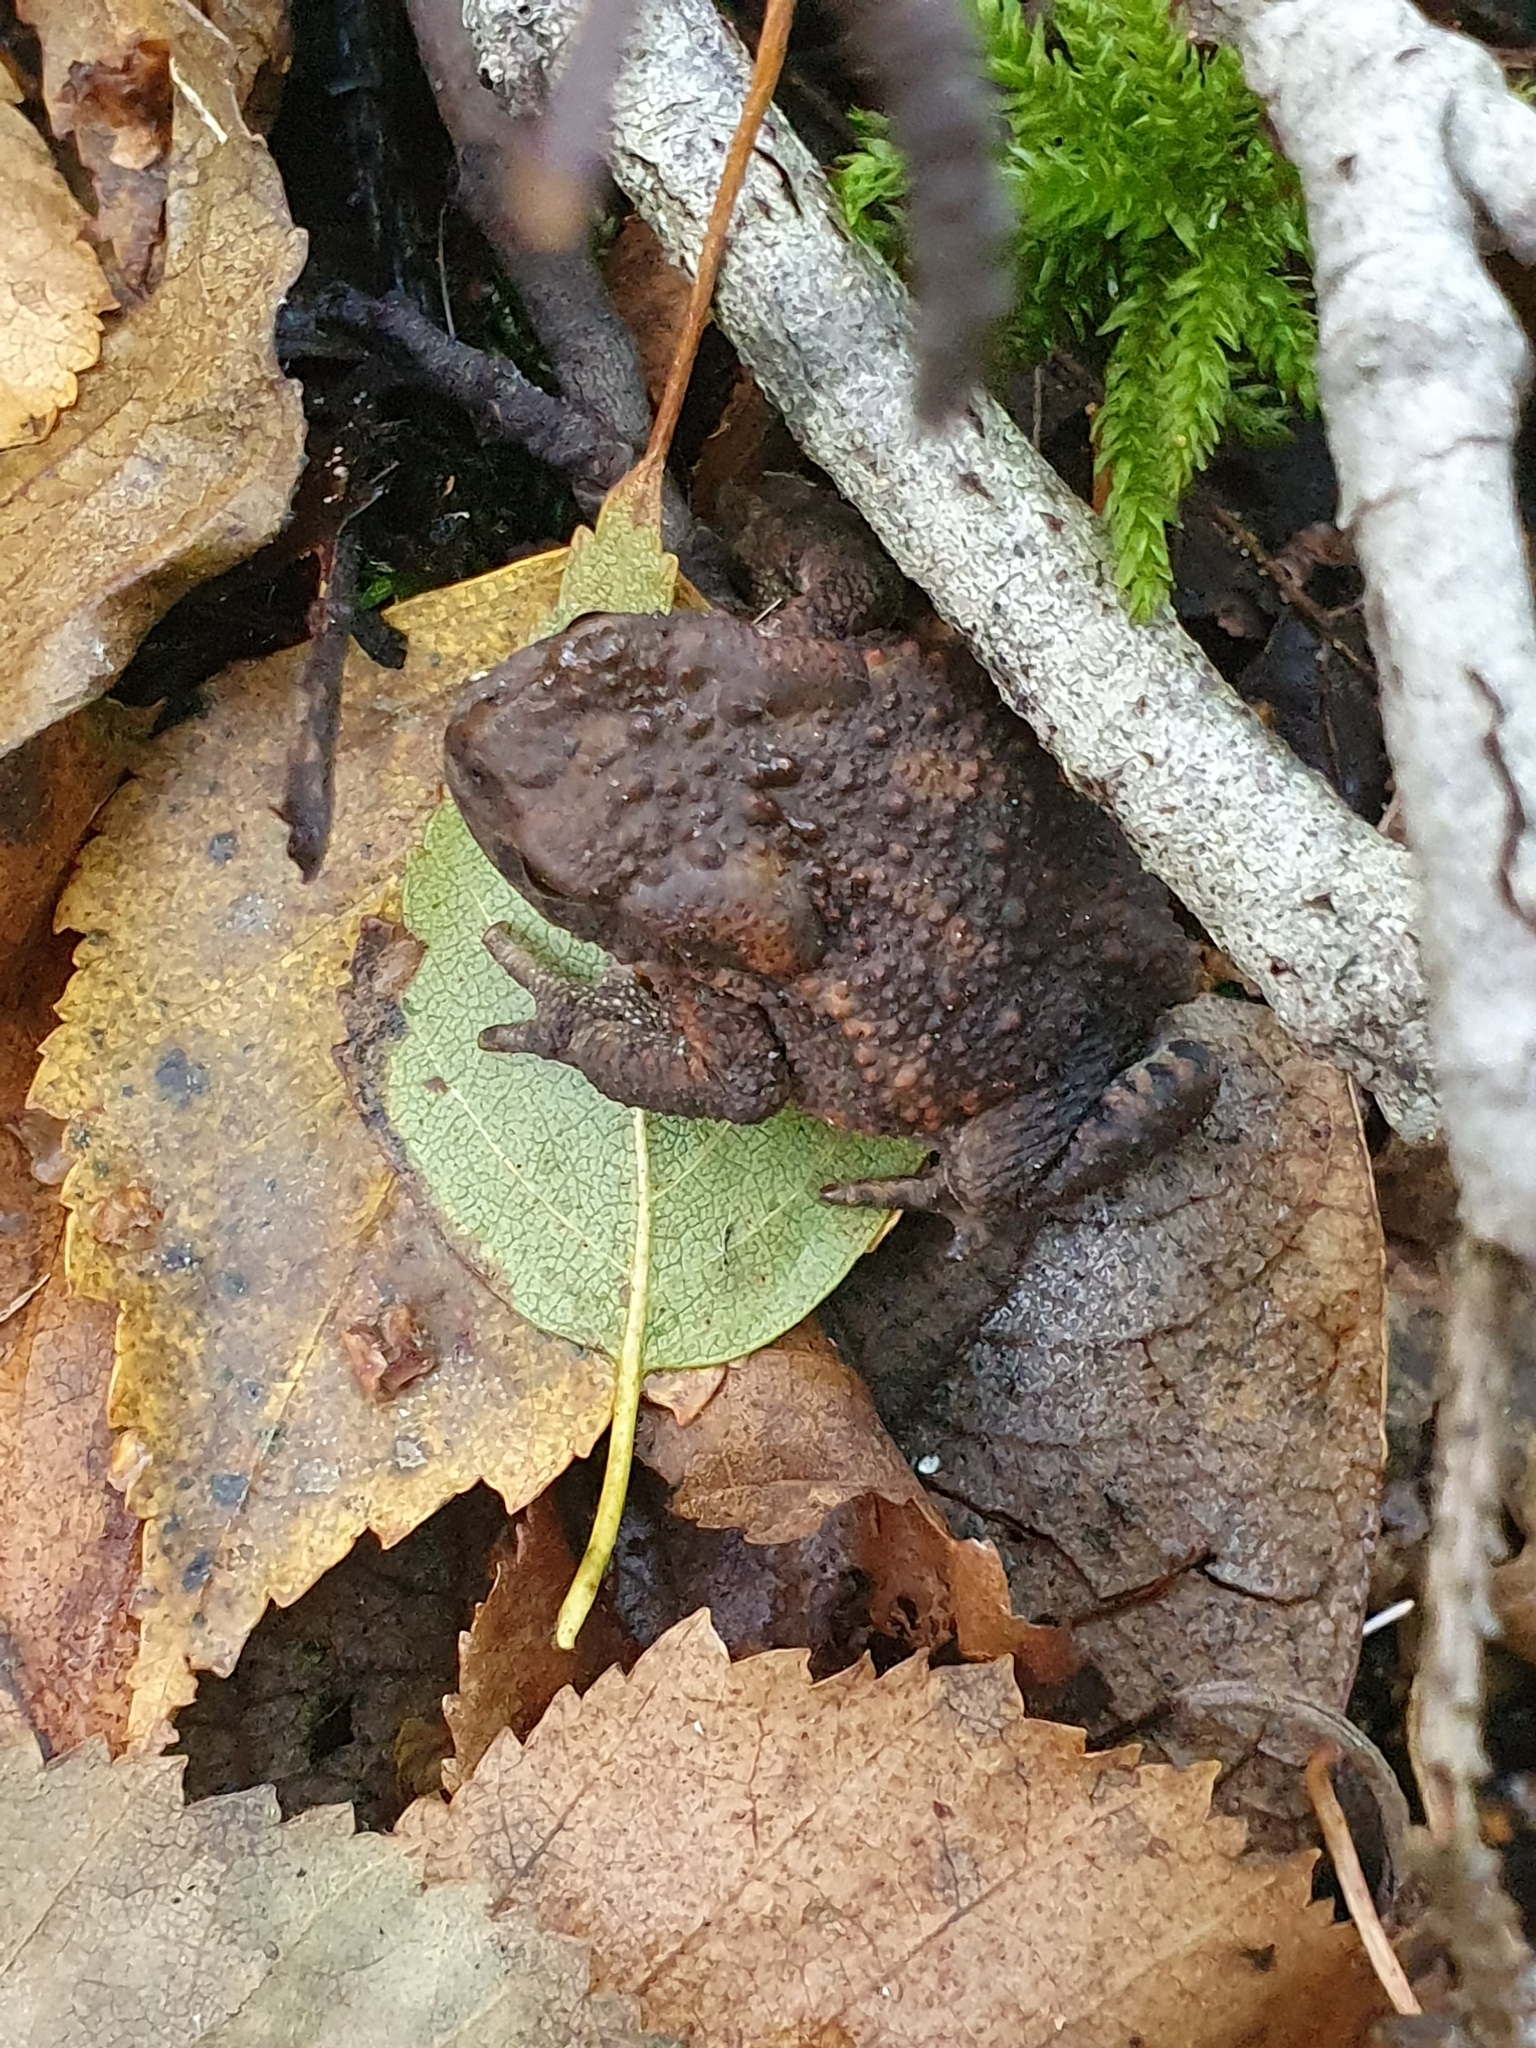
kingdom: Animalia
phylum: Chordata
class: Amphibia
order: Anura
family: Bufonidae
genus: Bufo
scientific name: Bufo bufo
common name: Common toad
